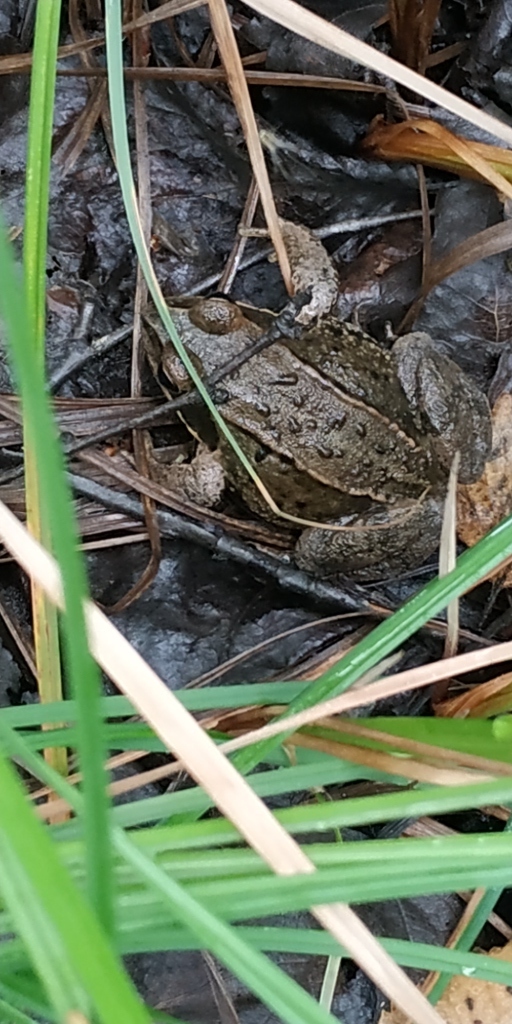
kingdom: Animalia
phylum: Chordata
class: Amphibia
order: Anura
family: Ranidae
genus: Rana
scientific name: Rana arvalis
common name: Moor frog
